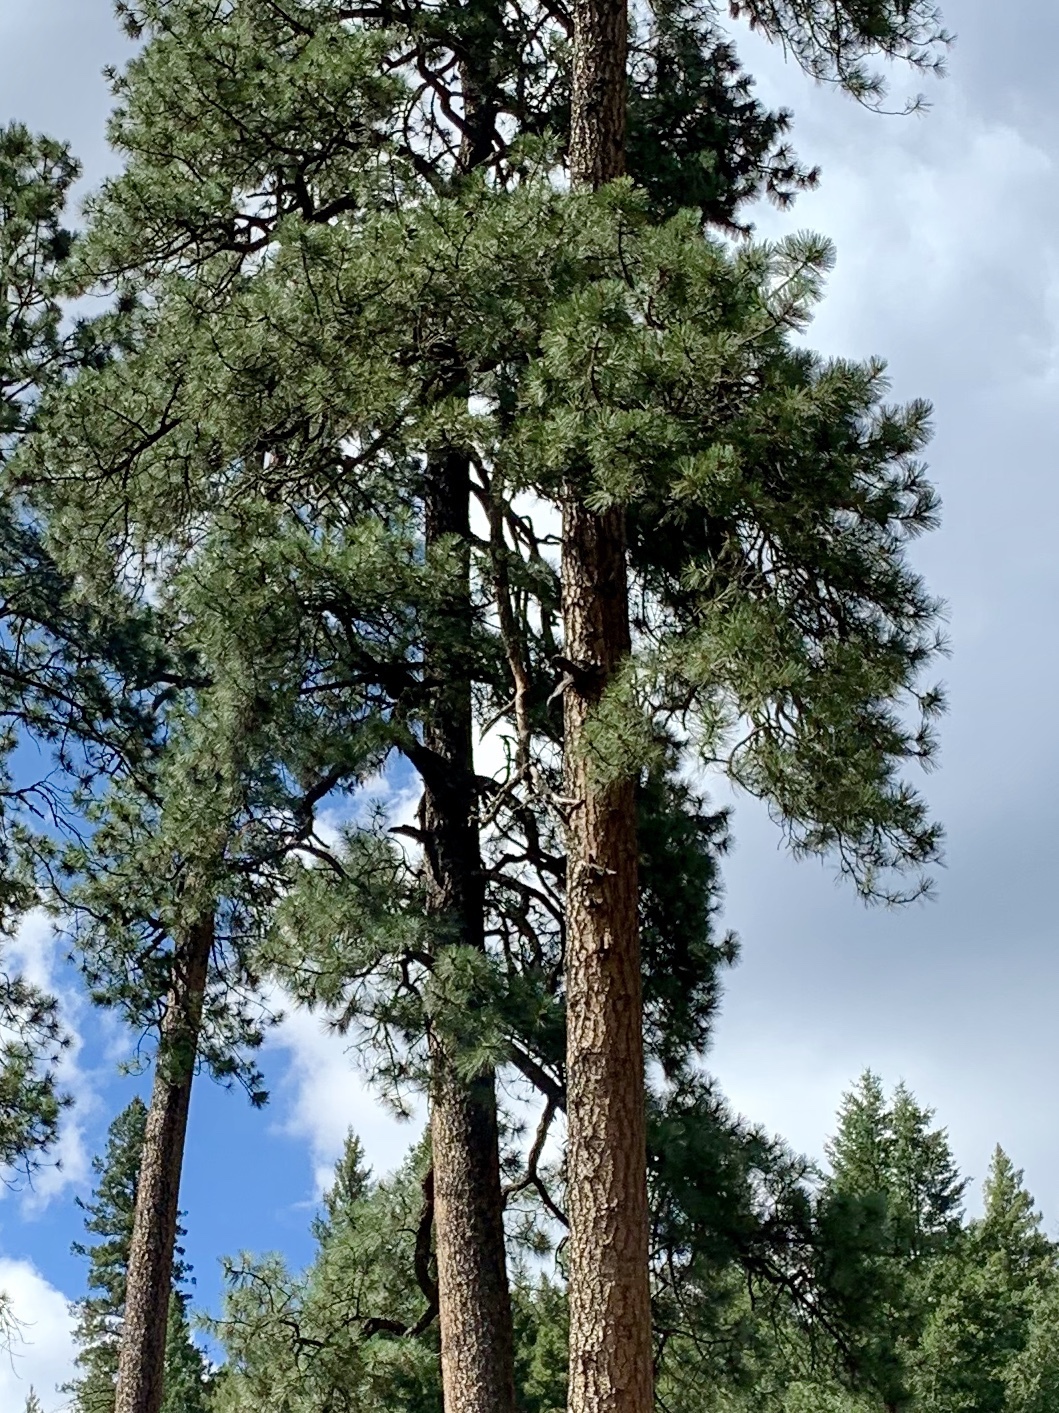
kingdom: Plantae
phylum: Tracheophyta
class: Pinopsida
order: Pinales
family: Pinaceae
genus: Pinus
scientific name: Pinus ponderosa
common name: Western yellow-pine
